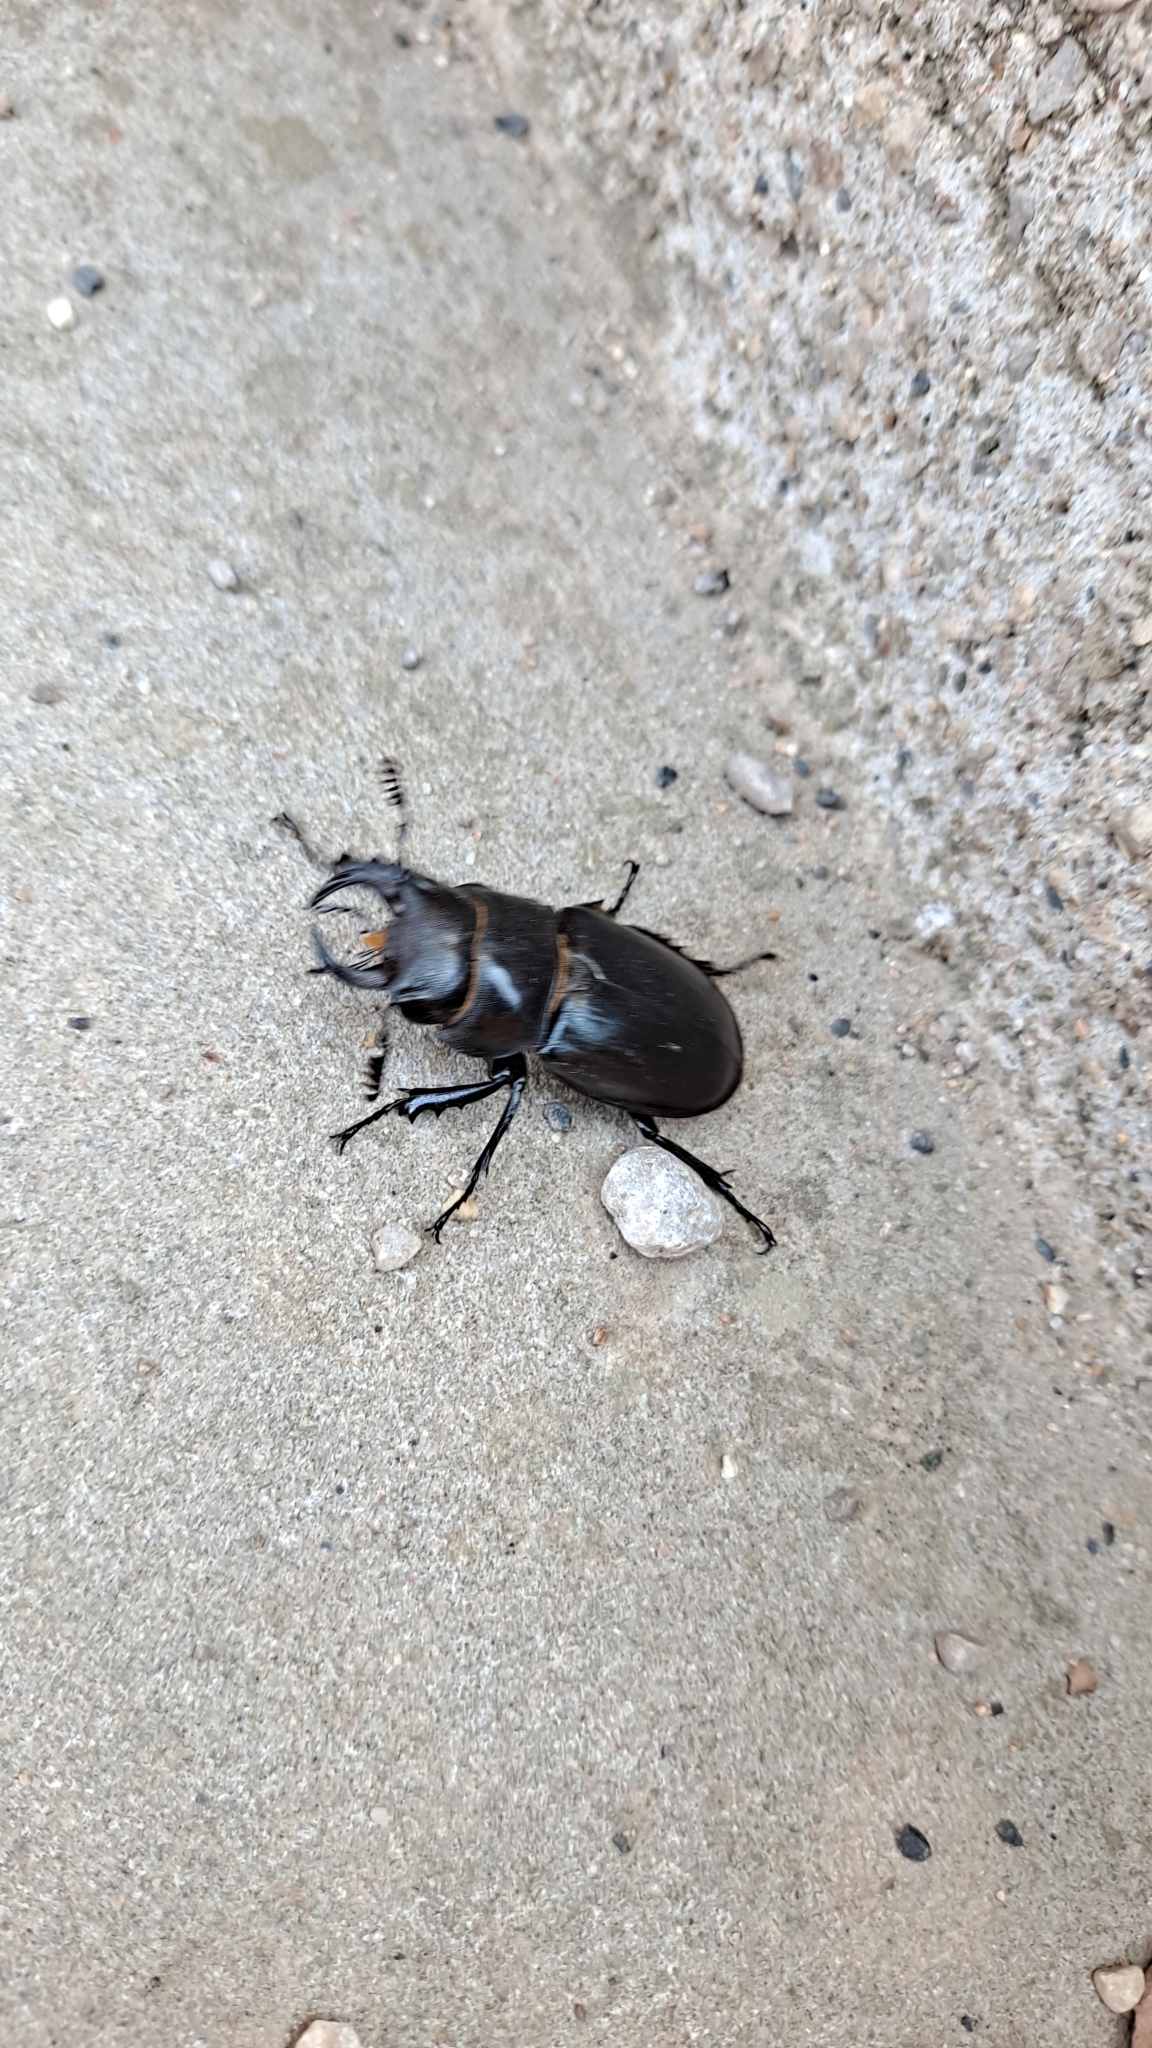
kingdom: Animalia
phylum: Arthropoda
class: Insecta
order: Coleoptera
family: Lucanidae
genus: Lucanus
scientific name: Lucanus barbarossa
